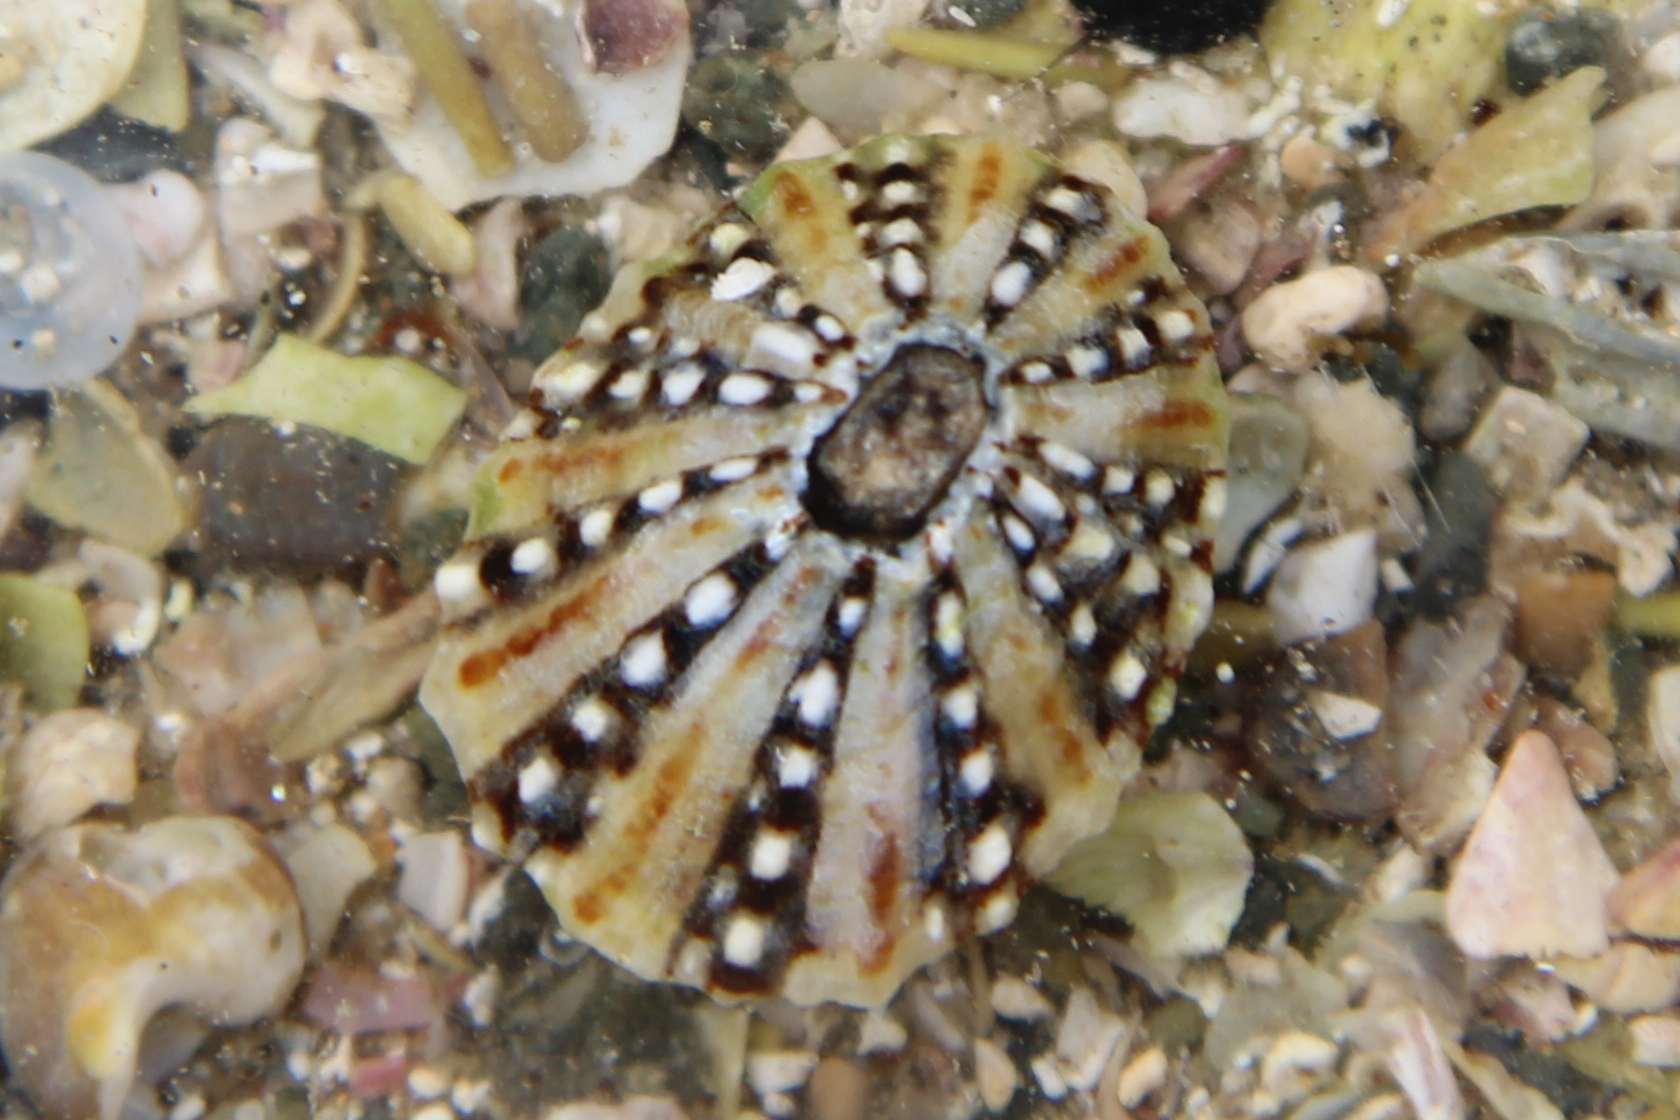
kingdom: Animalia
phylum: Mollusca
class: Gastropoda
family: Nacellidae
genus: Cellana
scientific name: Cellana ornata
